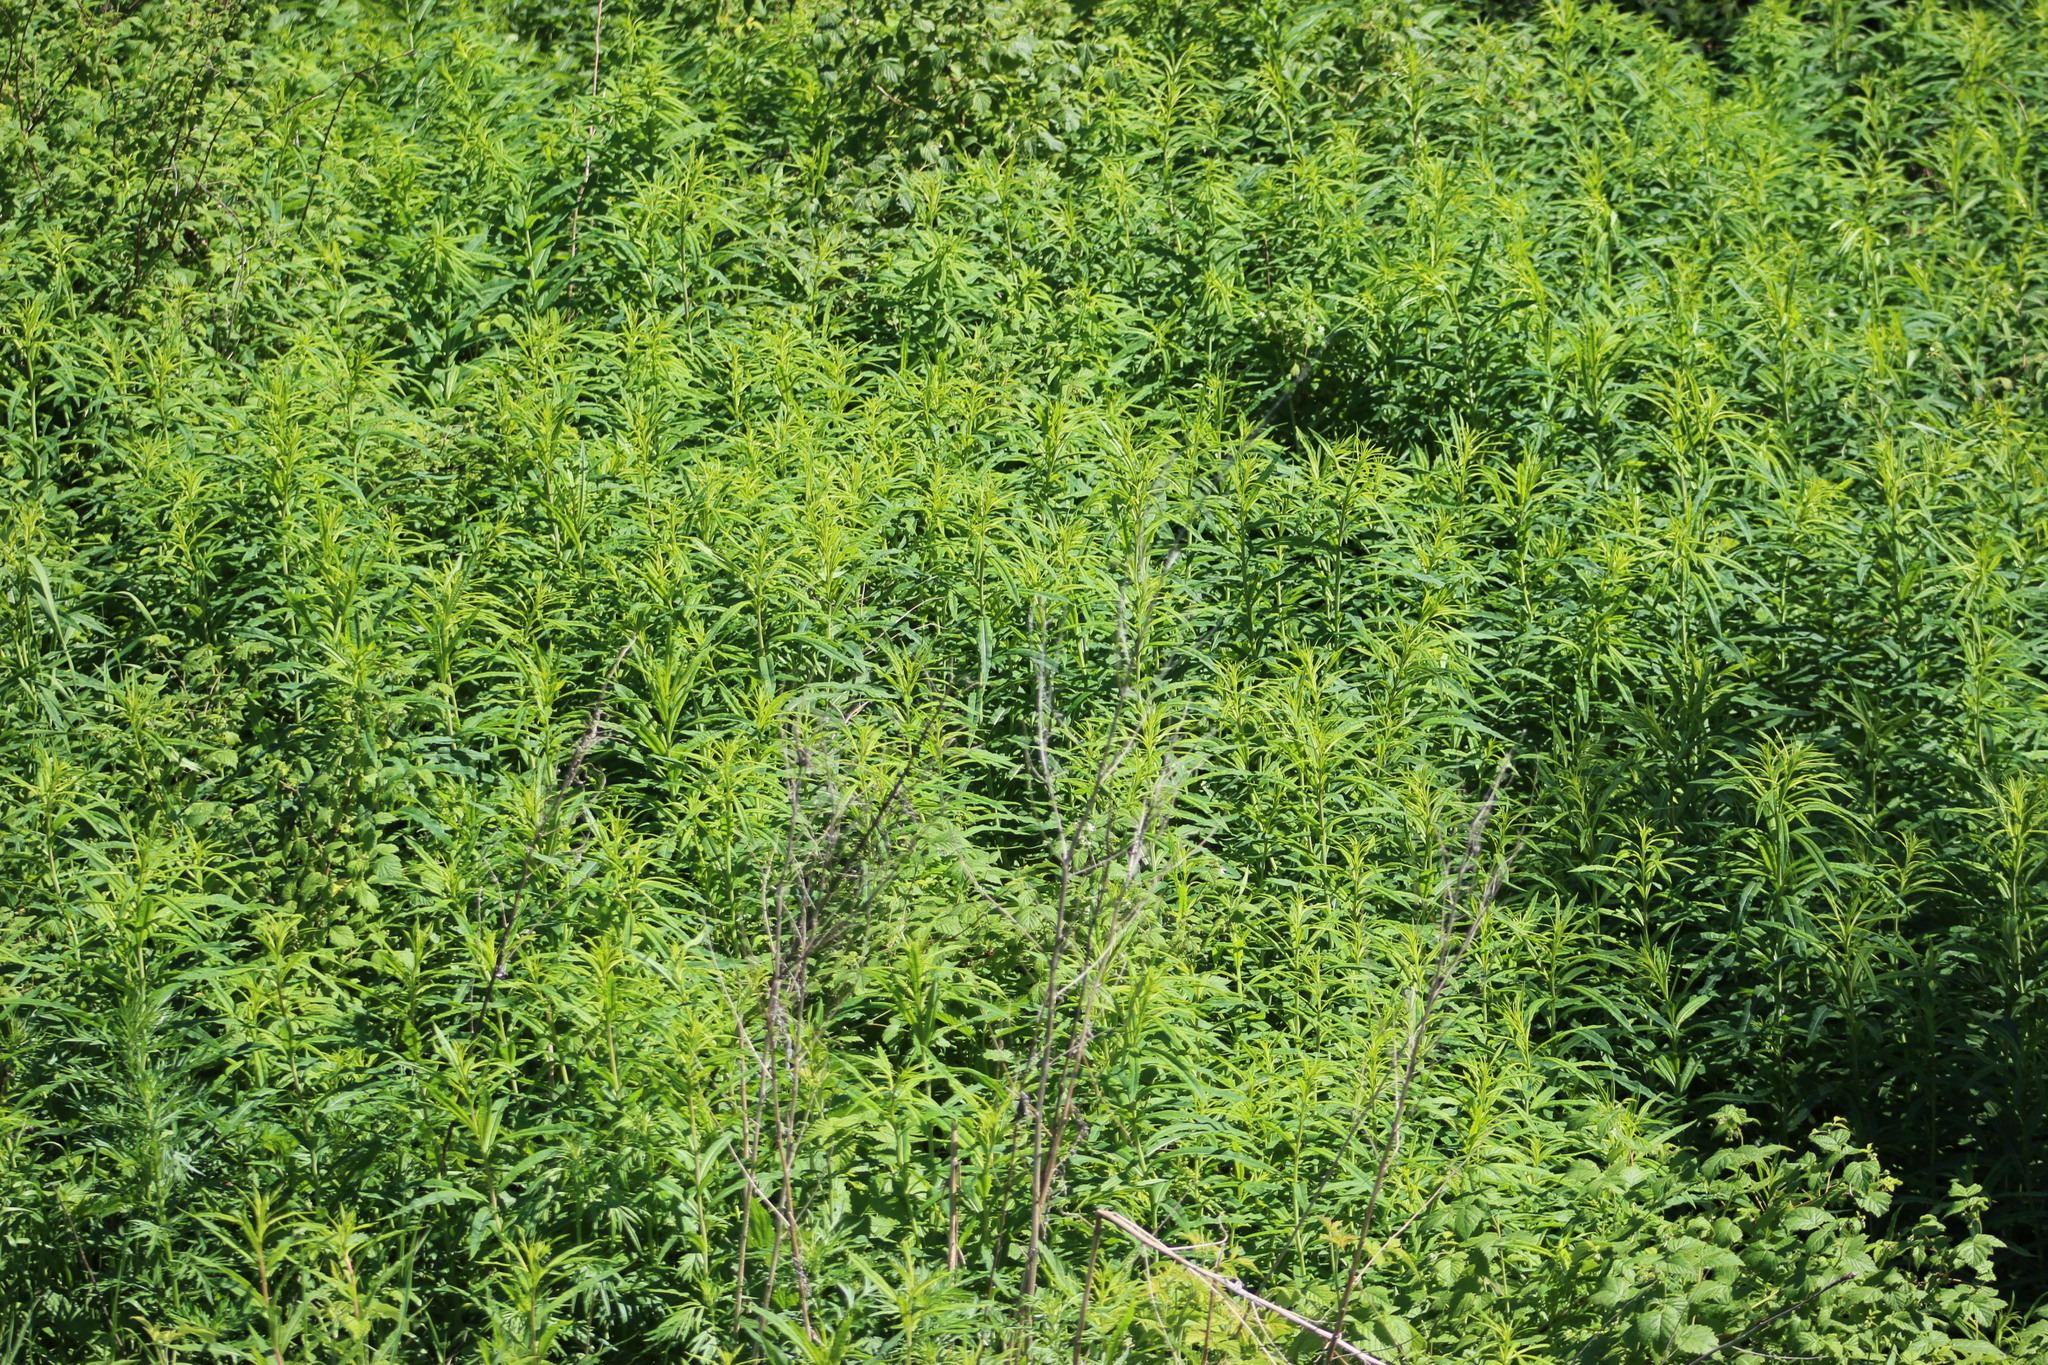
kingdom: Plantae
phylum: Tracheophyta
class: Magnoliopsida
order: Myrtales
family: Onagraceae
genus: Chamaenerion
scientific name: Chamaenerion angustifolium
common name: Fireweed
